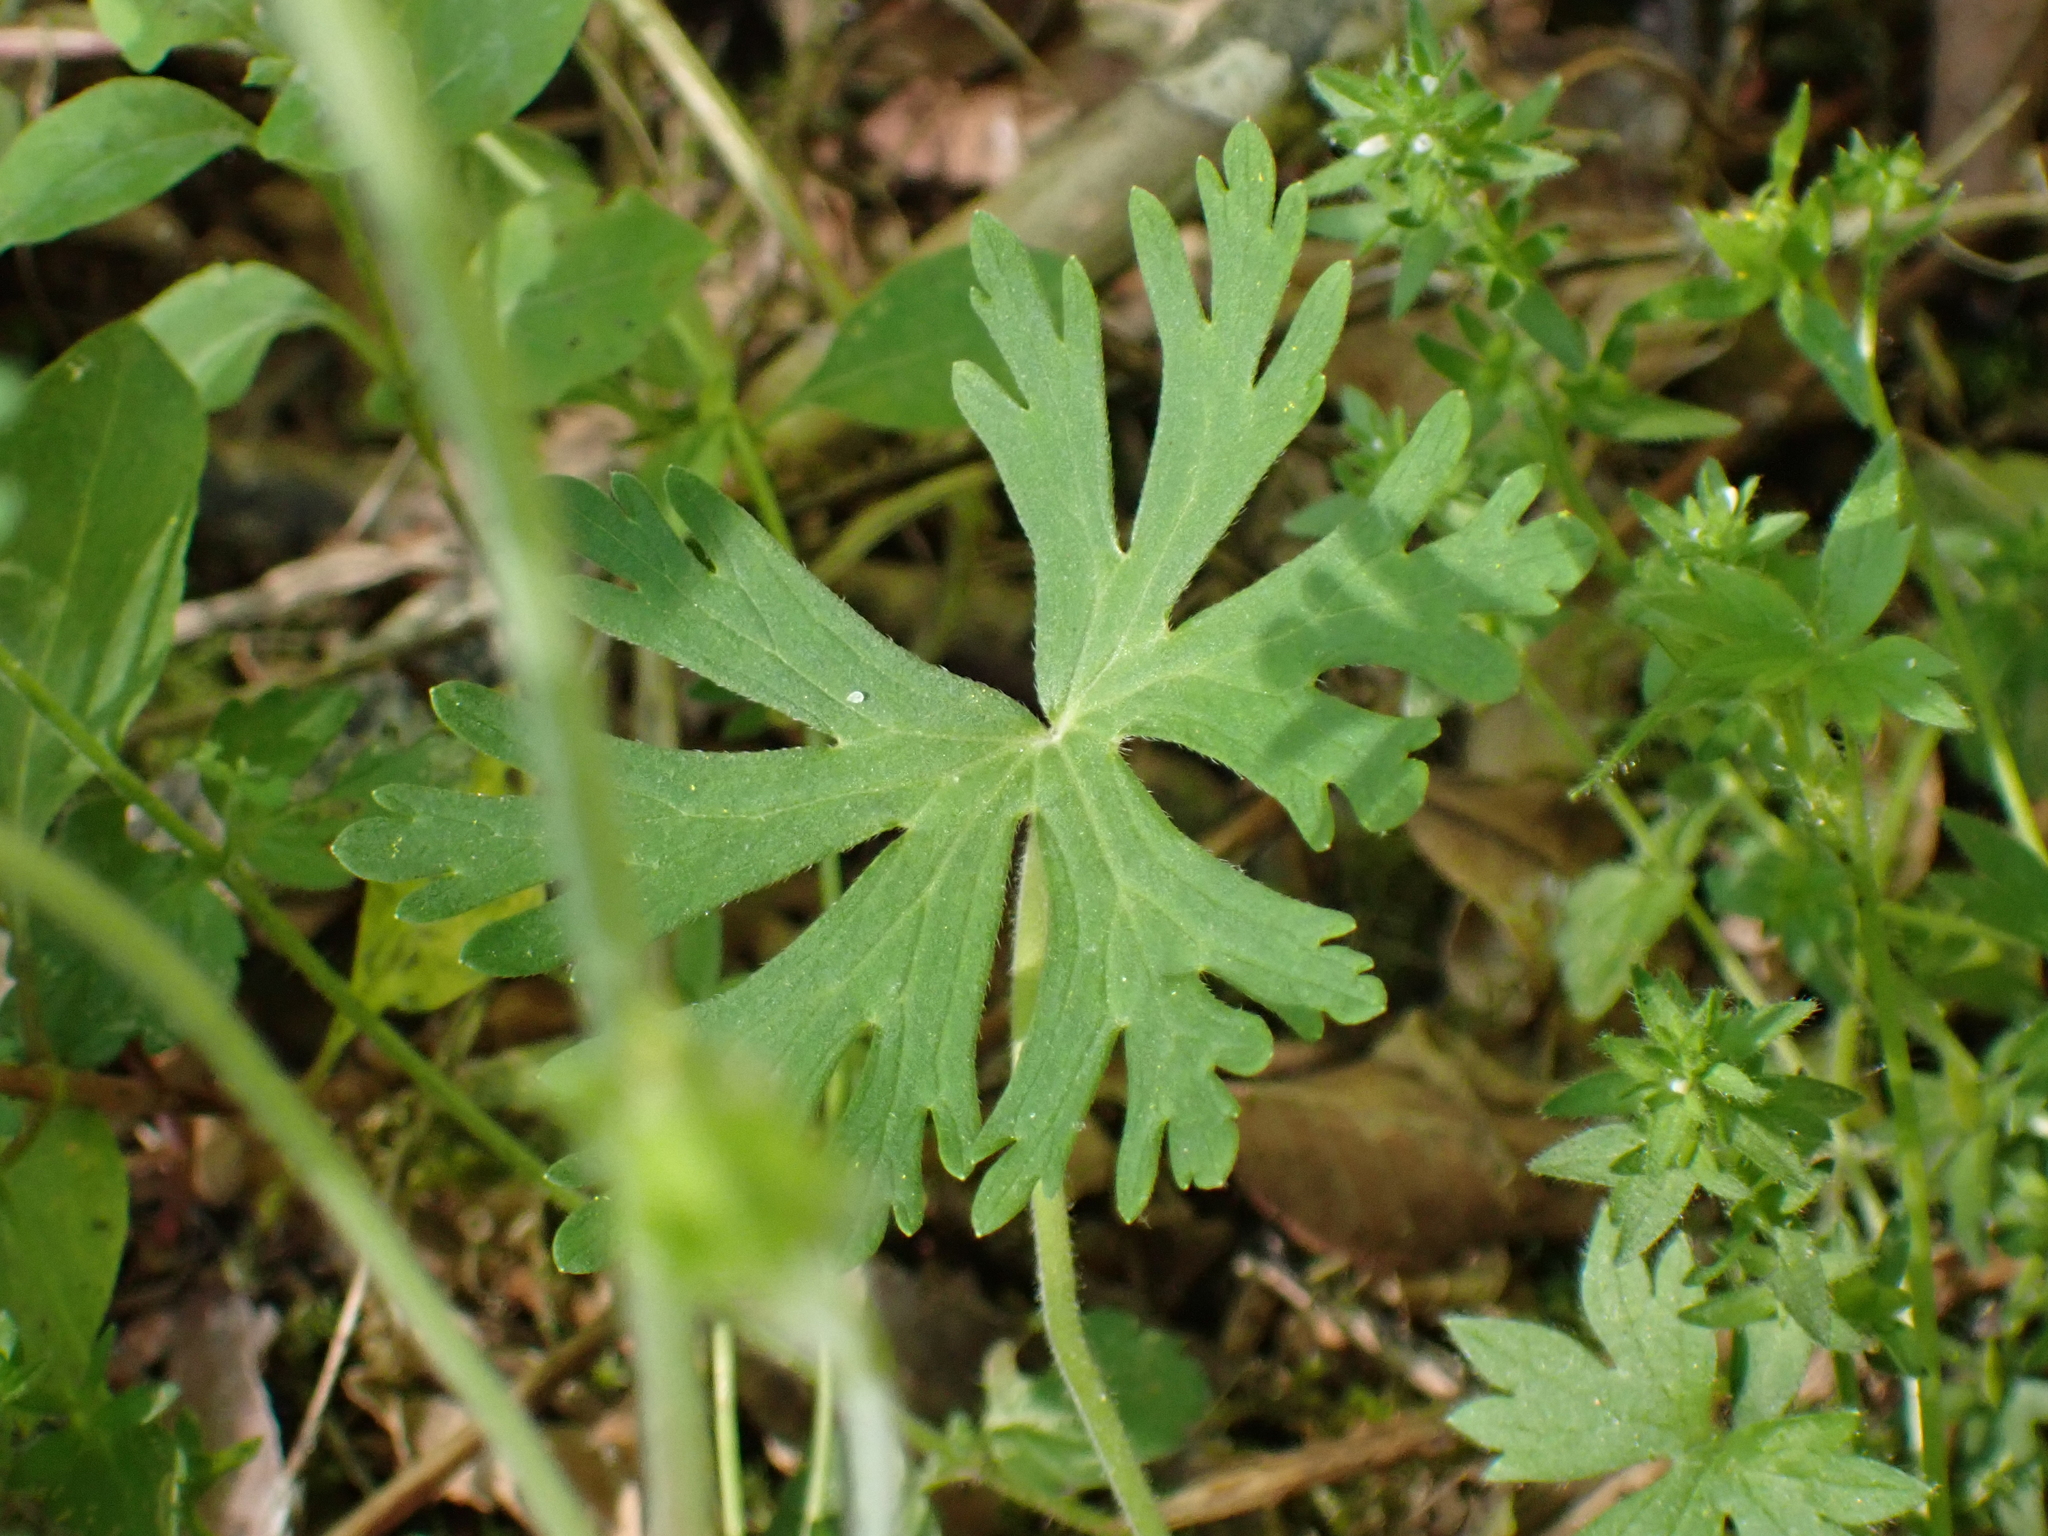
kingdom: Plantae
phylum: Tracheophyta
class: Magnoliopsida
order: Geraniales
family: Geraniaceae
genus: Geranium
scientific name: Geranium carolinianum
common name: Carolina crane's-bill
